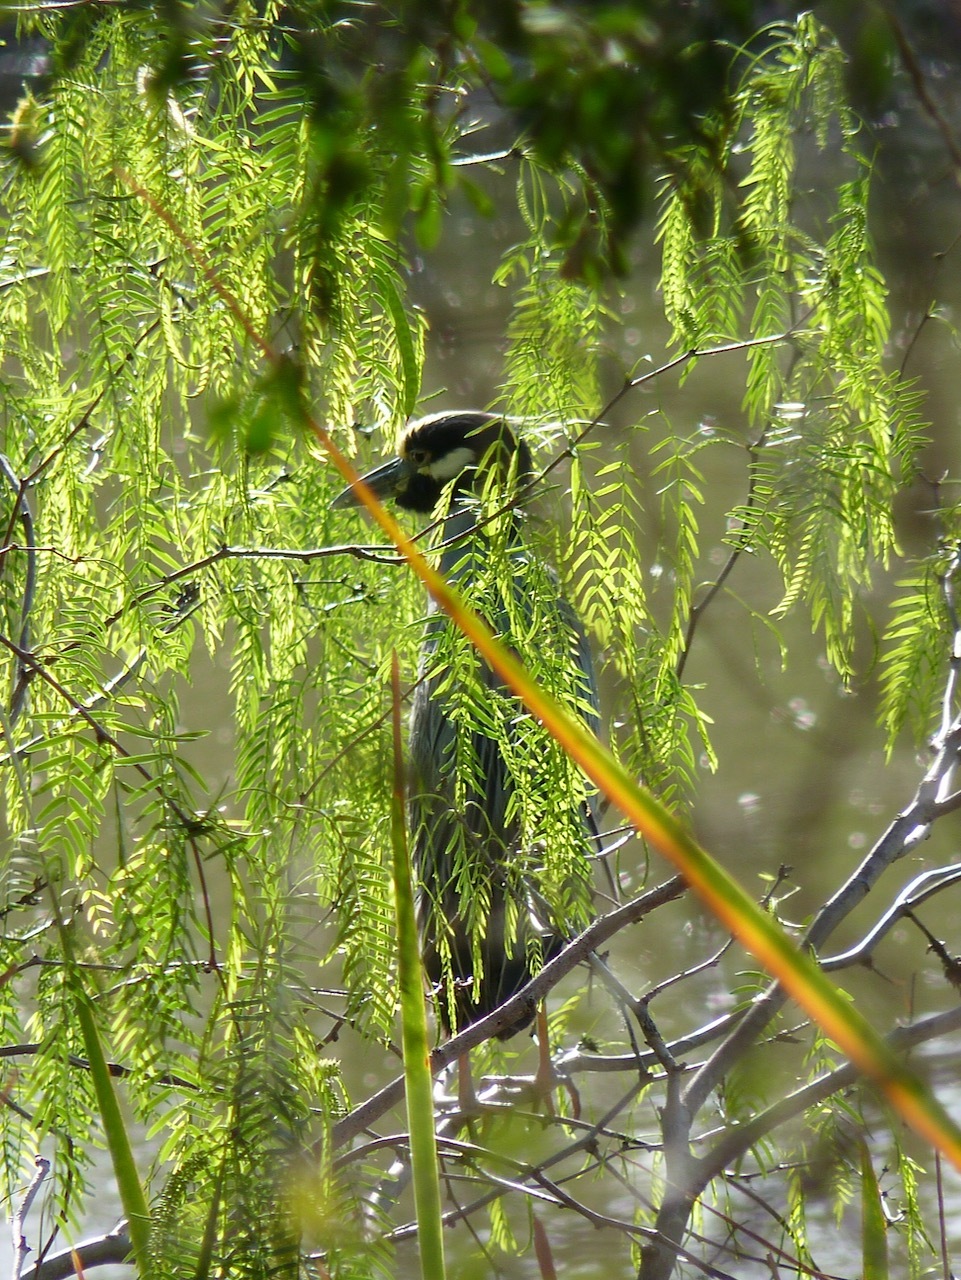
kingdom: Animalia
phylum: Chordata
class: Aves
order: Pelecaniformes
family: Ardeidae
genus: Nyctanassa
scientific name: Nyctanassa violacea
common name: Yellow-crowned night heron
